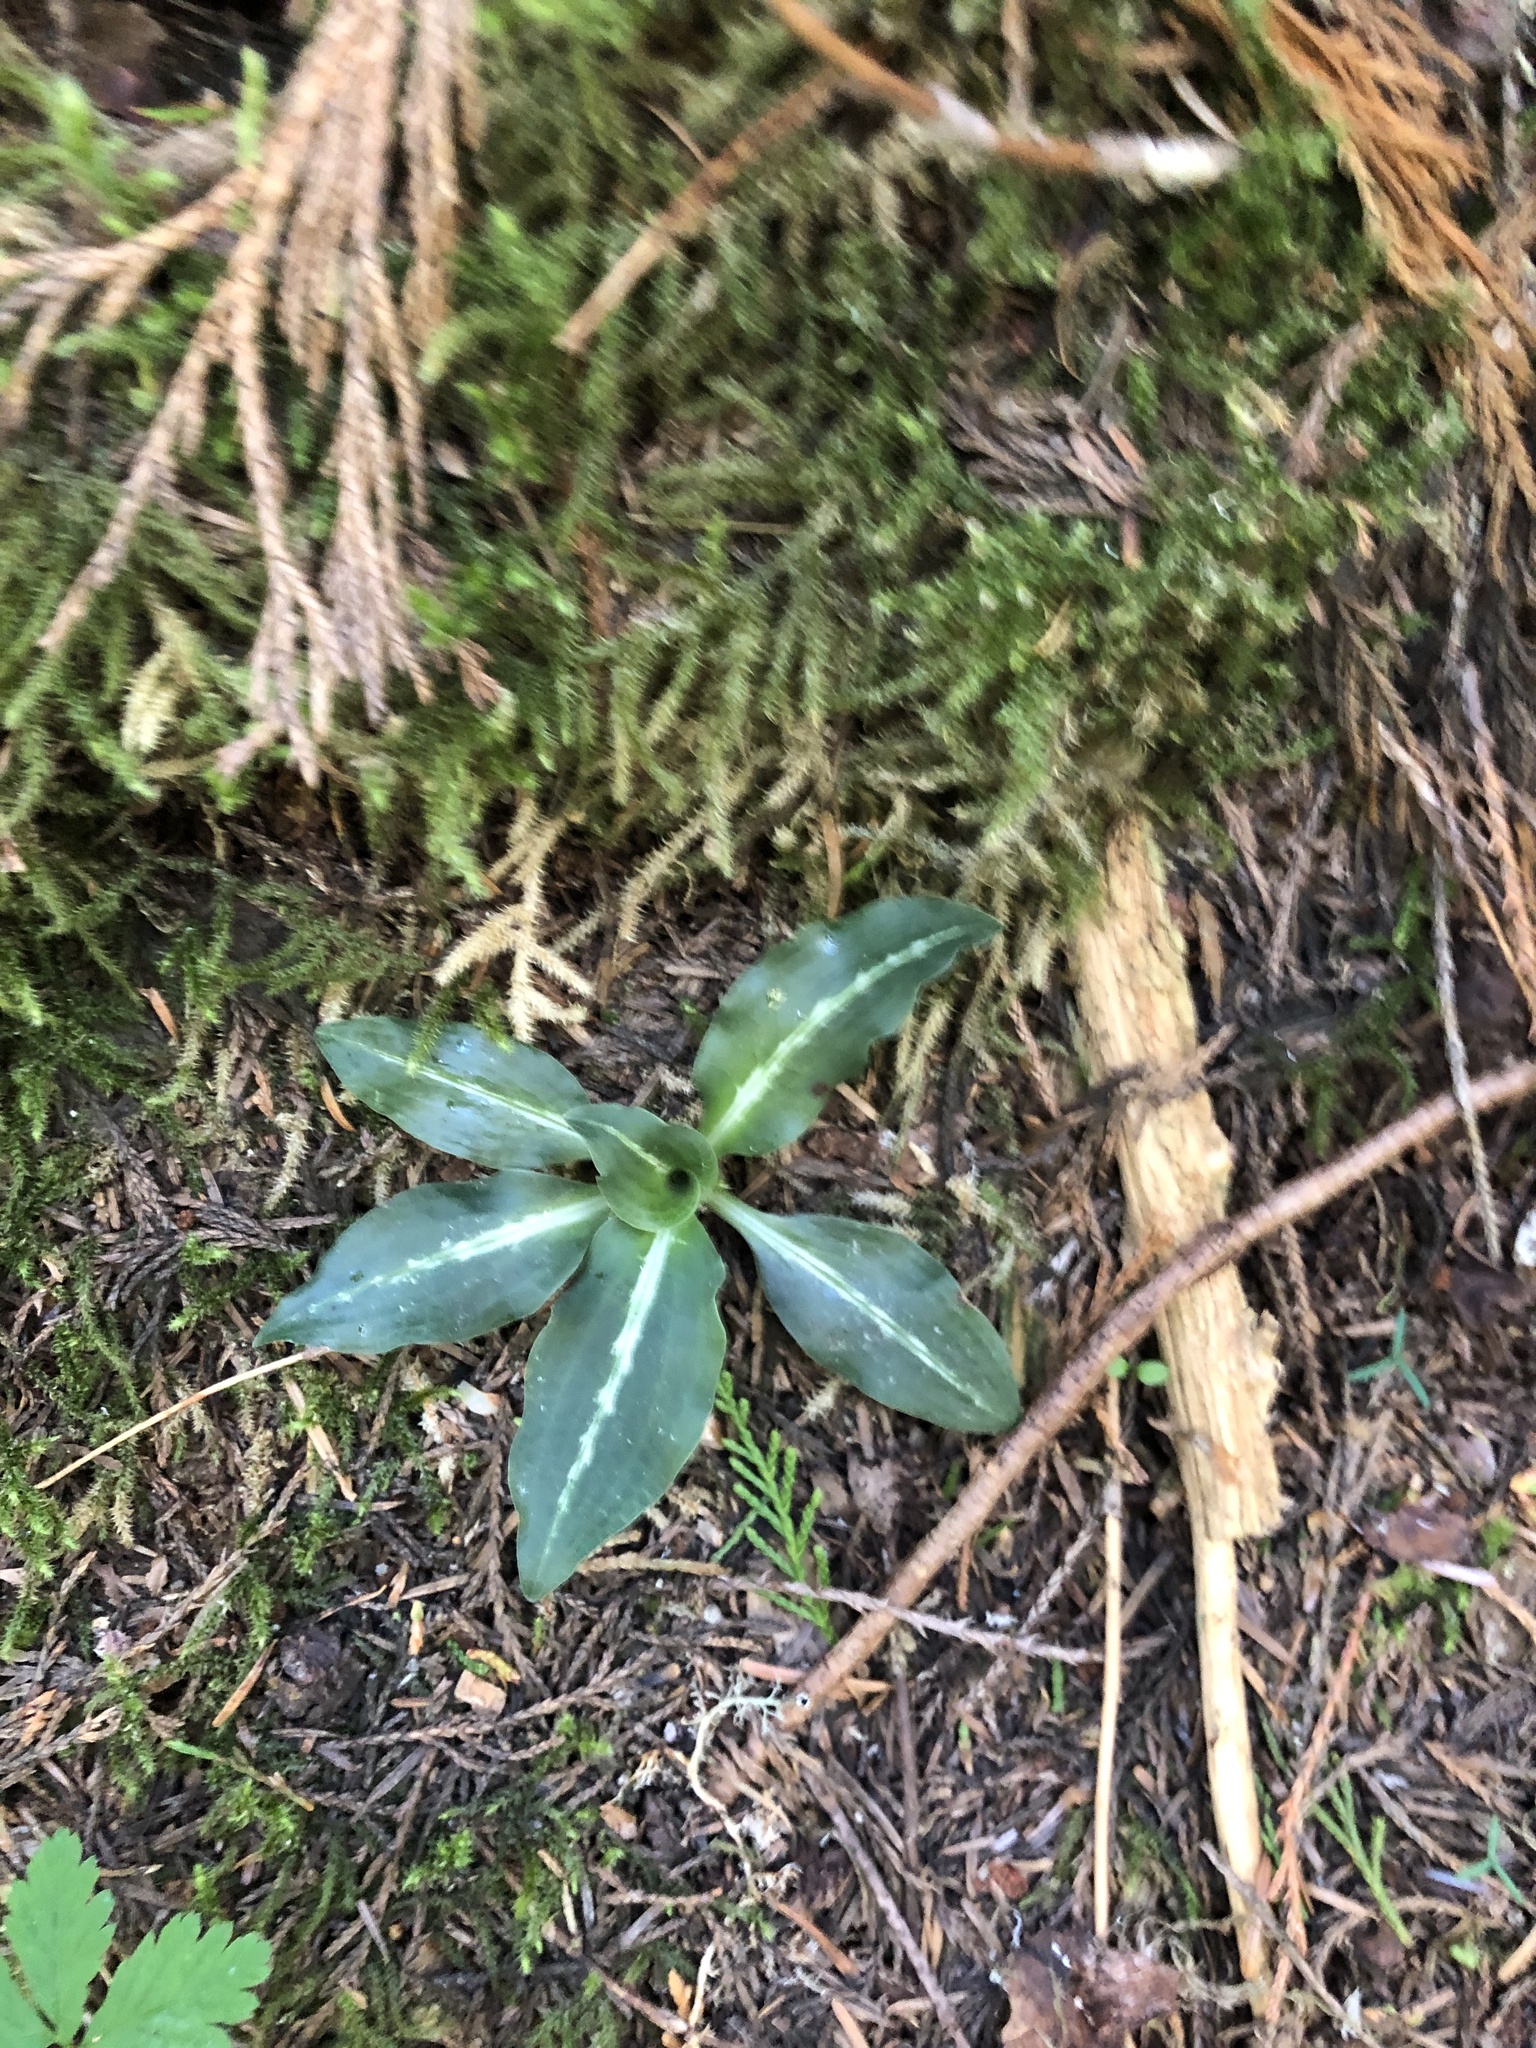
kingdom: Plantae
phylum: Tracheophyta
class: Liliopsida
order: Asparagales
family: Orchidaceae
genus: Goodyera
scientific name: Goodyera oblongifolia
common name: Giant rattlesnake-plantain
